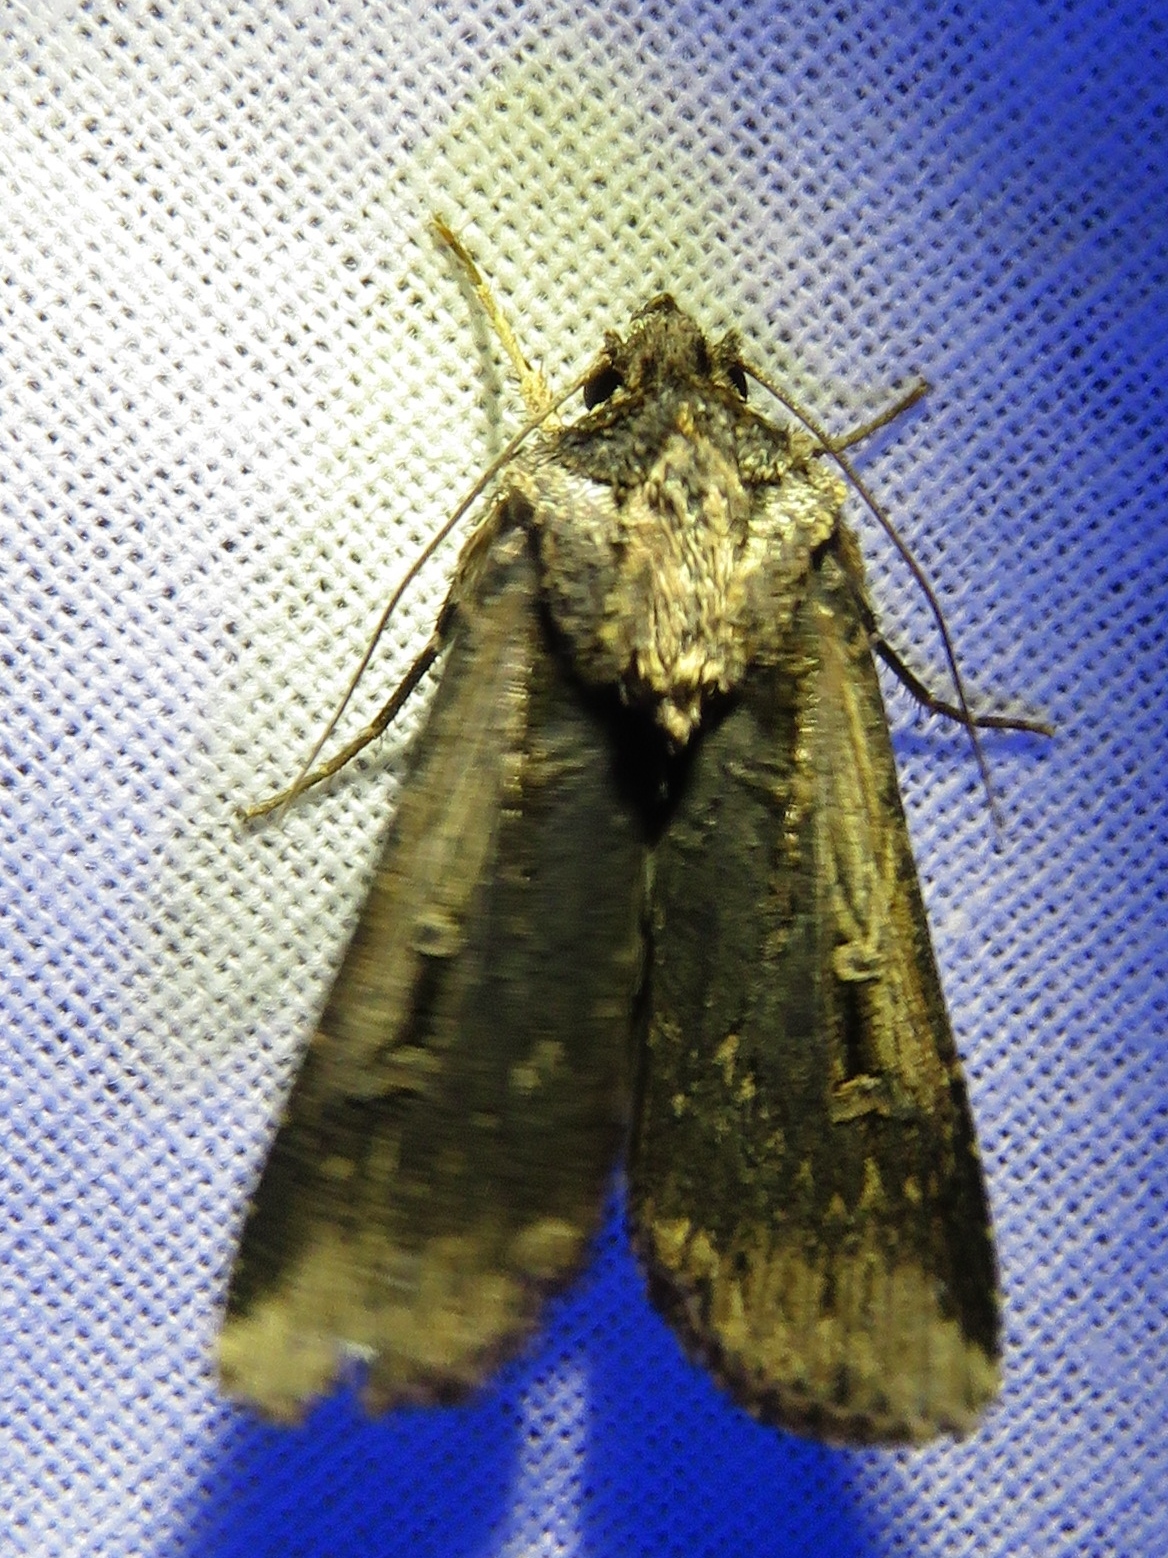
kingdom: Animalia
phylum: Arthropoda
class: Insecta
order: Lepidoptera
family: Noctuidae
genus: Feltia
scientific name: Feltia subterranea
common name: Granulate cutworm
